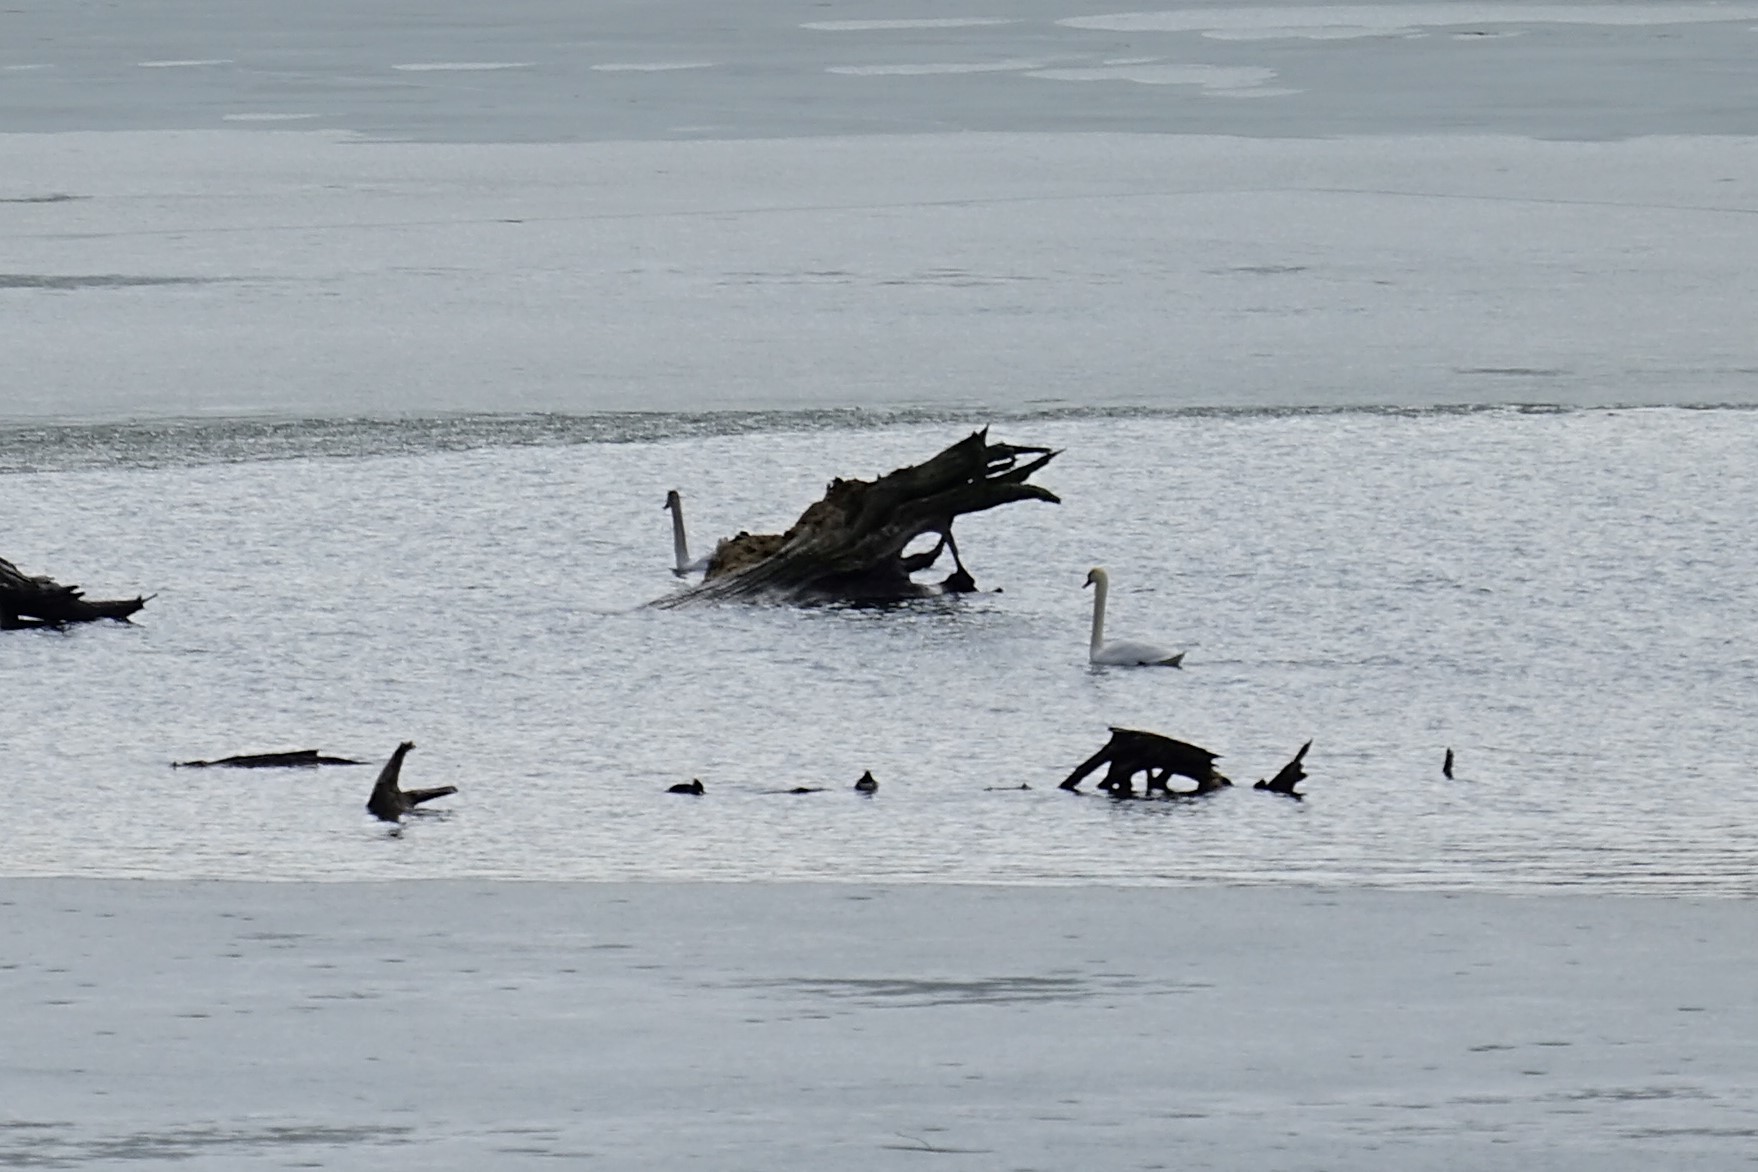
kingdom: Animalia
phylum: Chordata
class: Aves
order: Anseriformes
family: Anatidae
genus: Cygnus
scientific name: Cygnus olor
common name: Mute swan
